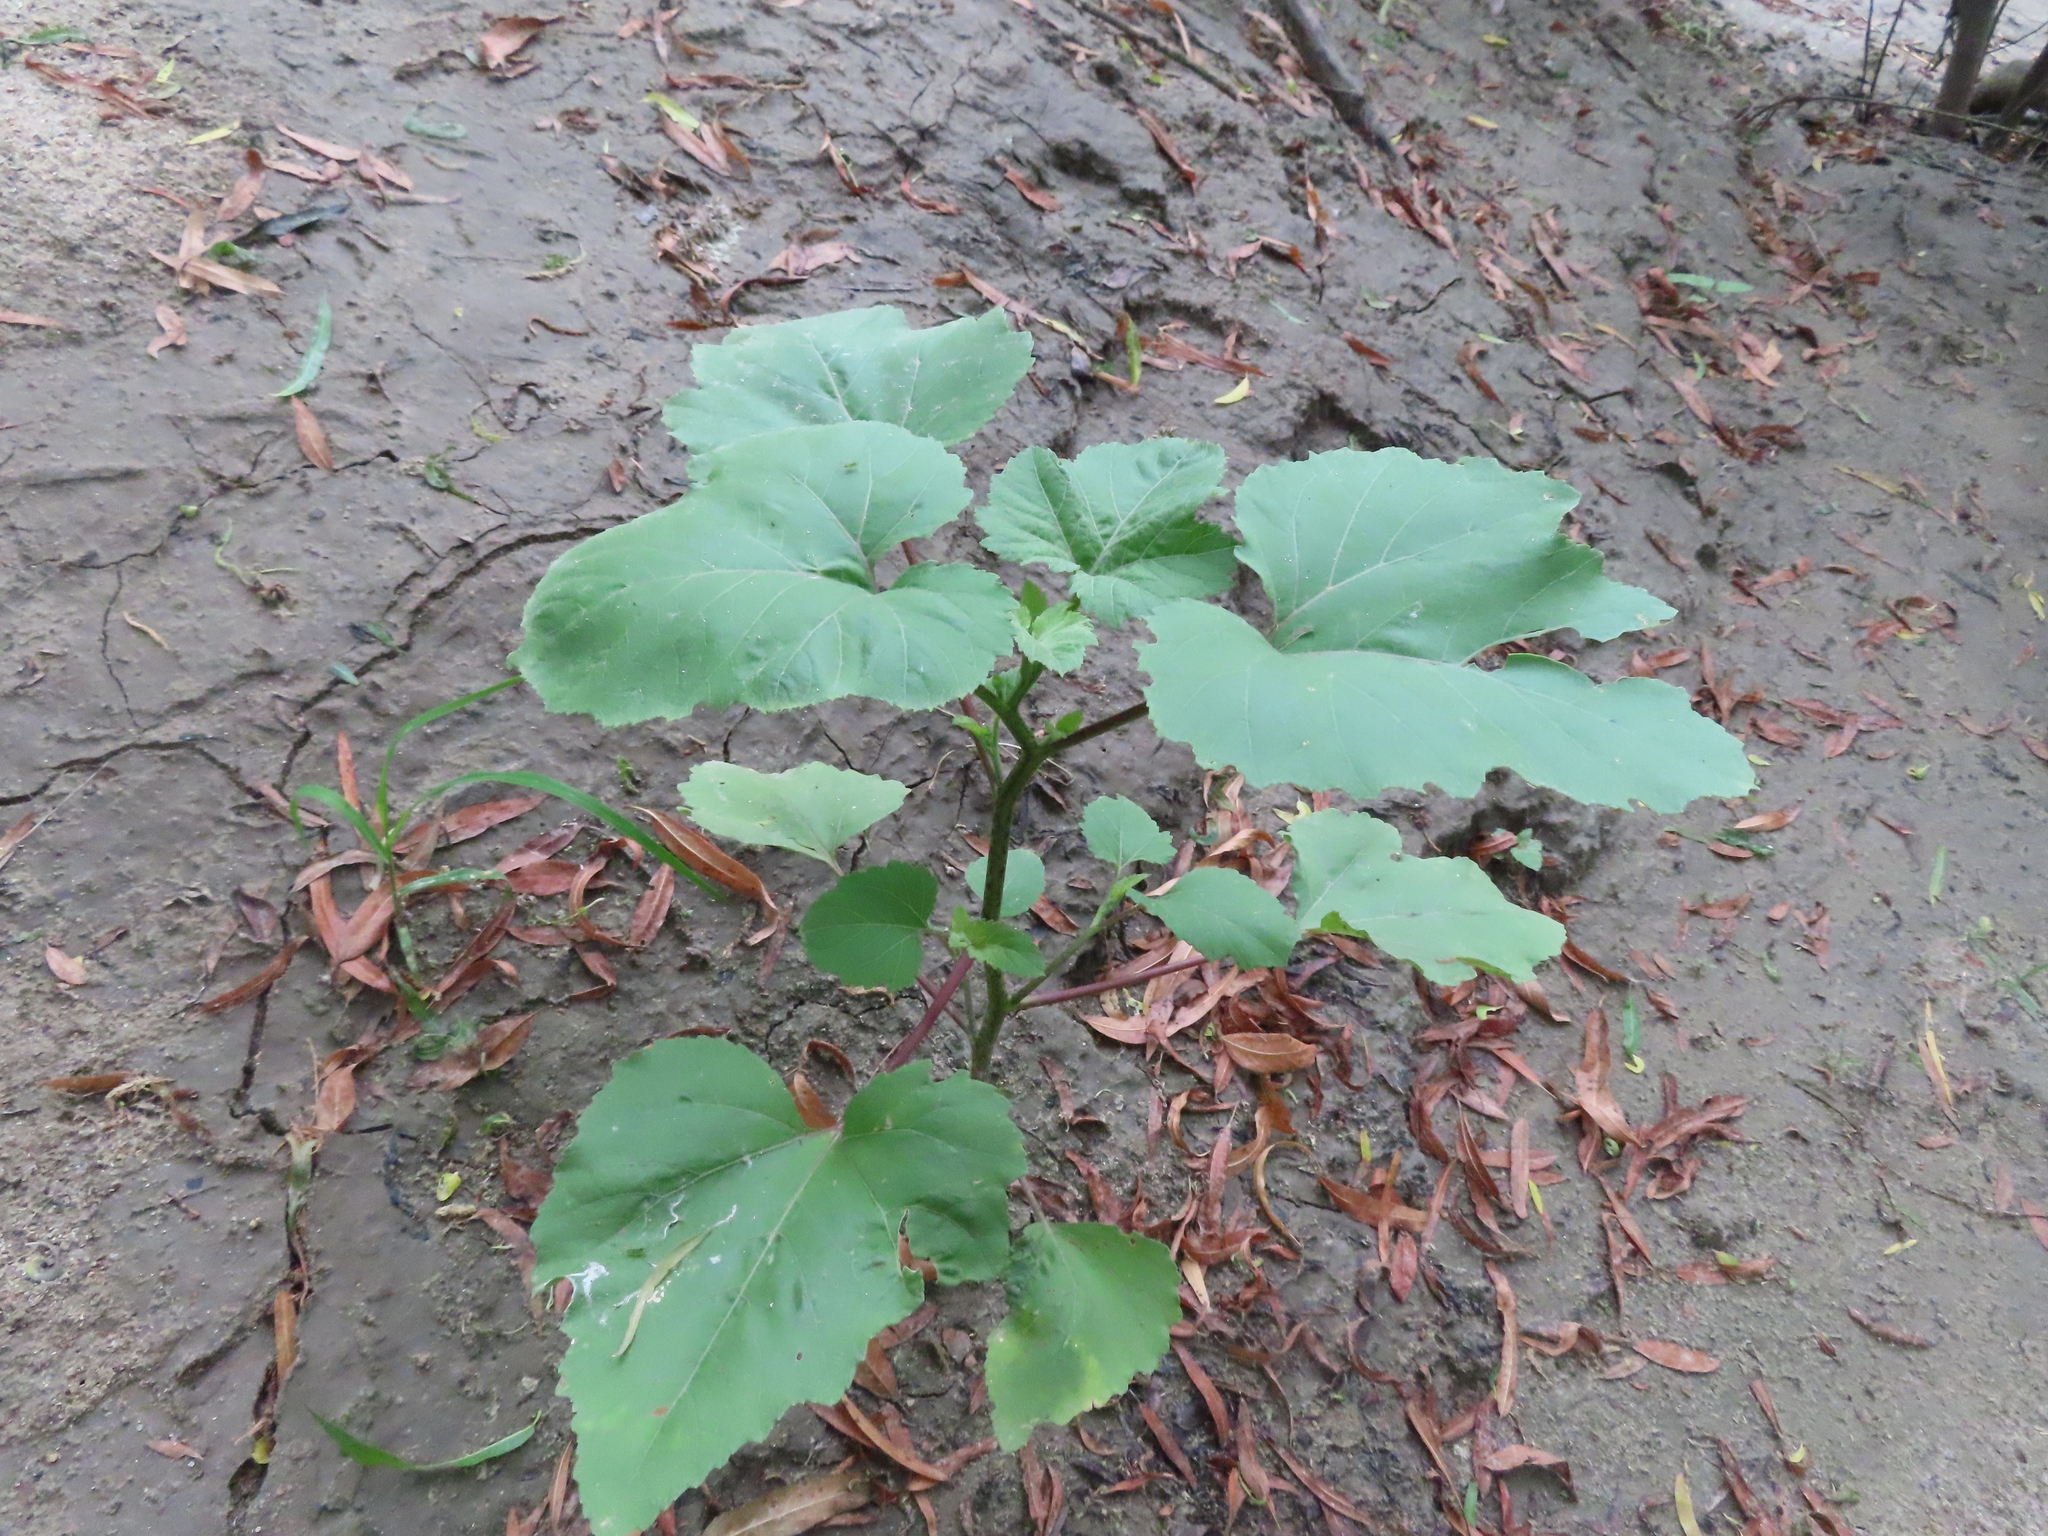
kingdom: Plantae
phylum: Tracheophyta
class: Magnoliopsida
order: Asterales
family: Asteraceae
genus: Xanthium
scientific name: Xanthium
